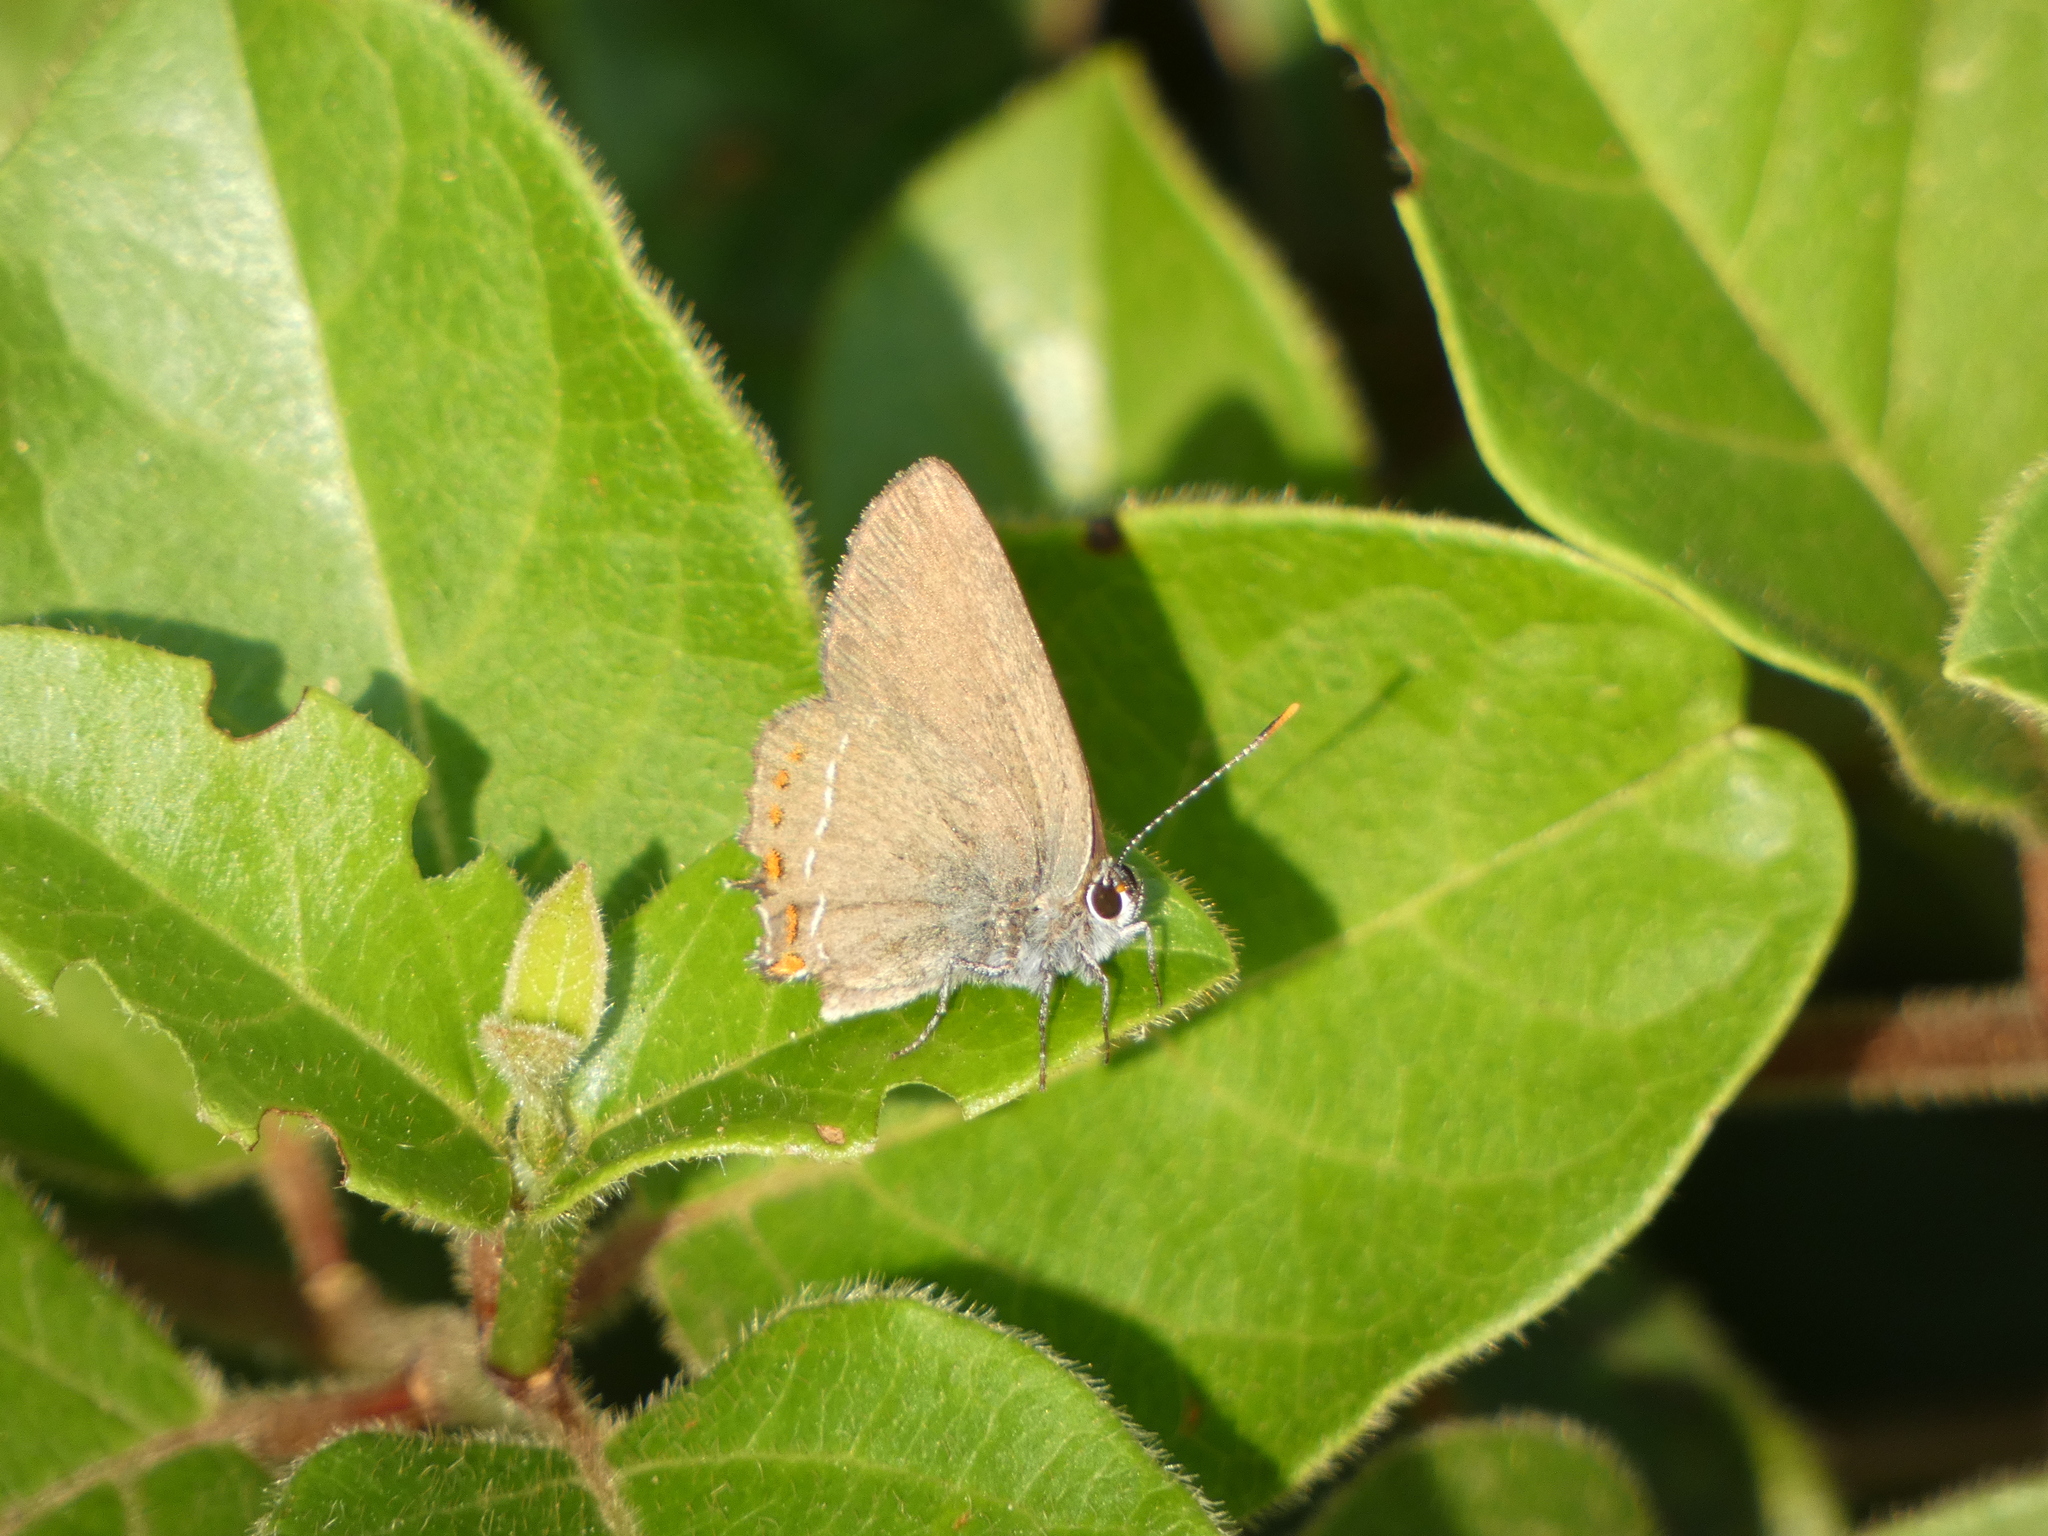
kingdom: Animalia
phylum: Arthropoda
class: Insecta
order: Lepidoptera
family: Lycaenidae
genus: Fixsenia
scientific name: Fixsenia esculi
